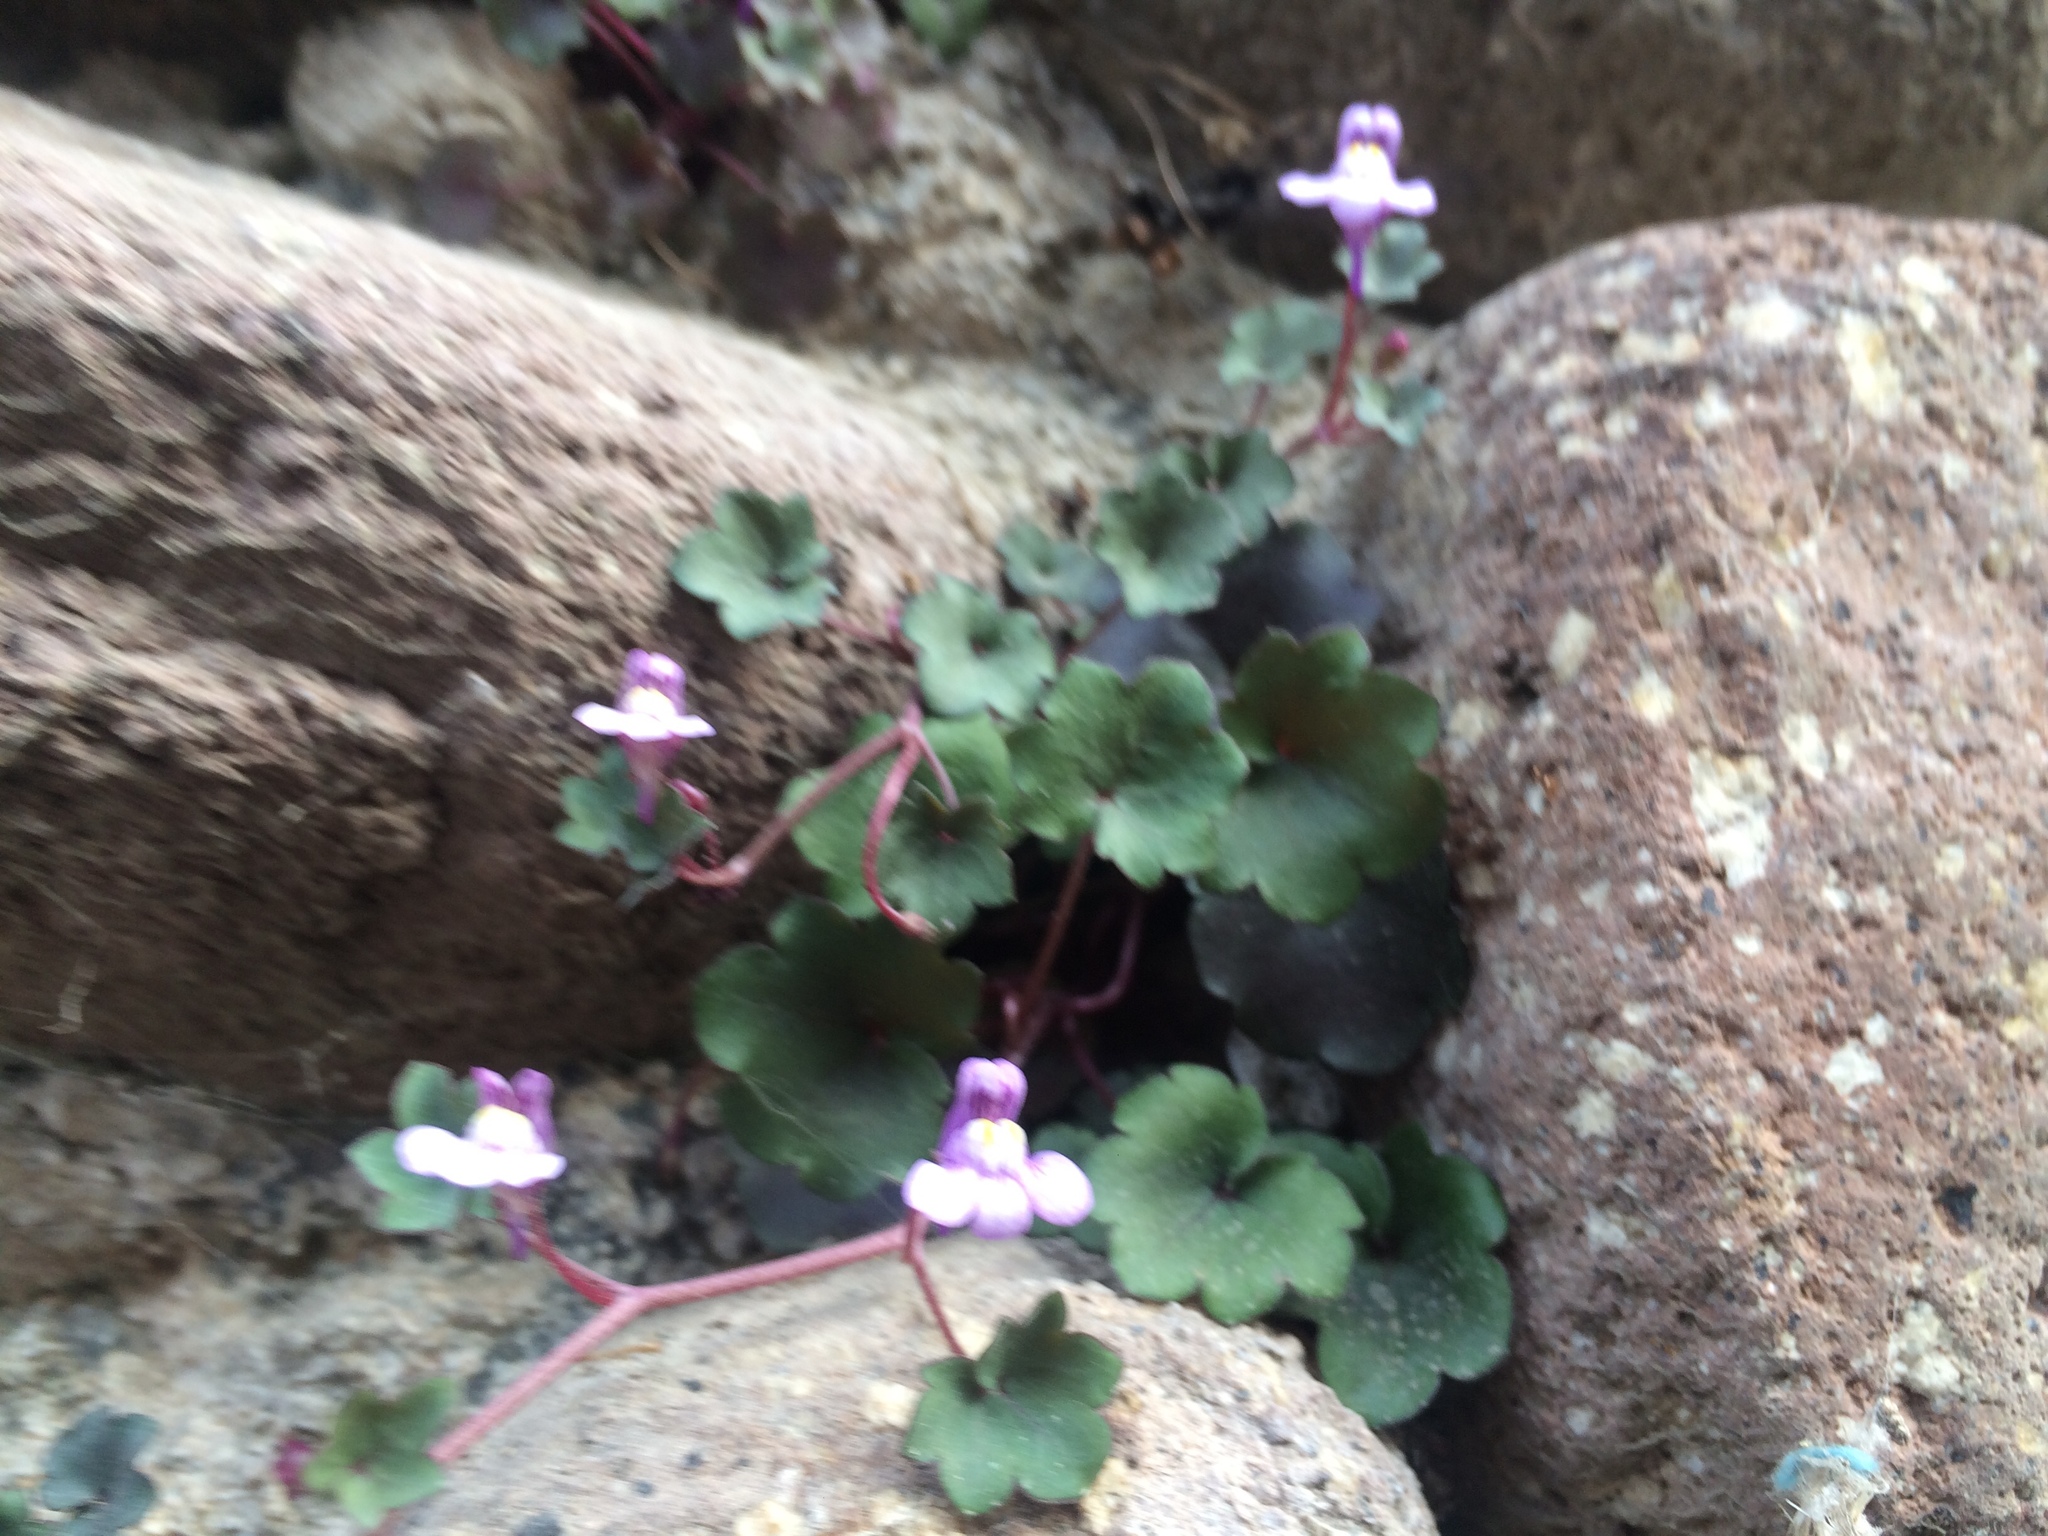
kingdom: Plantae
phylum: Tracheophyta
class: Magnoliopsida
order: Lamiales
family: Plantaginaceae
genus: Cymbalaria
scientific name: Cymbalaria muralis
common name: Ivy-leaved toadflax
